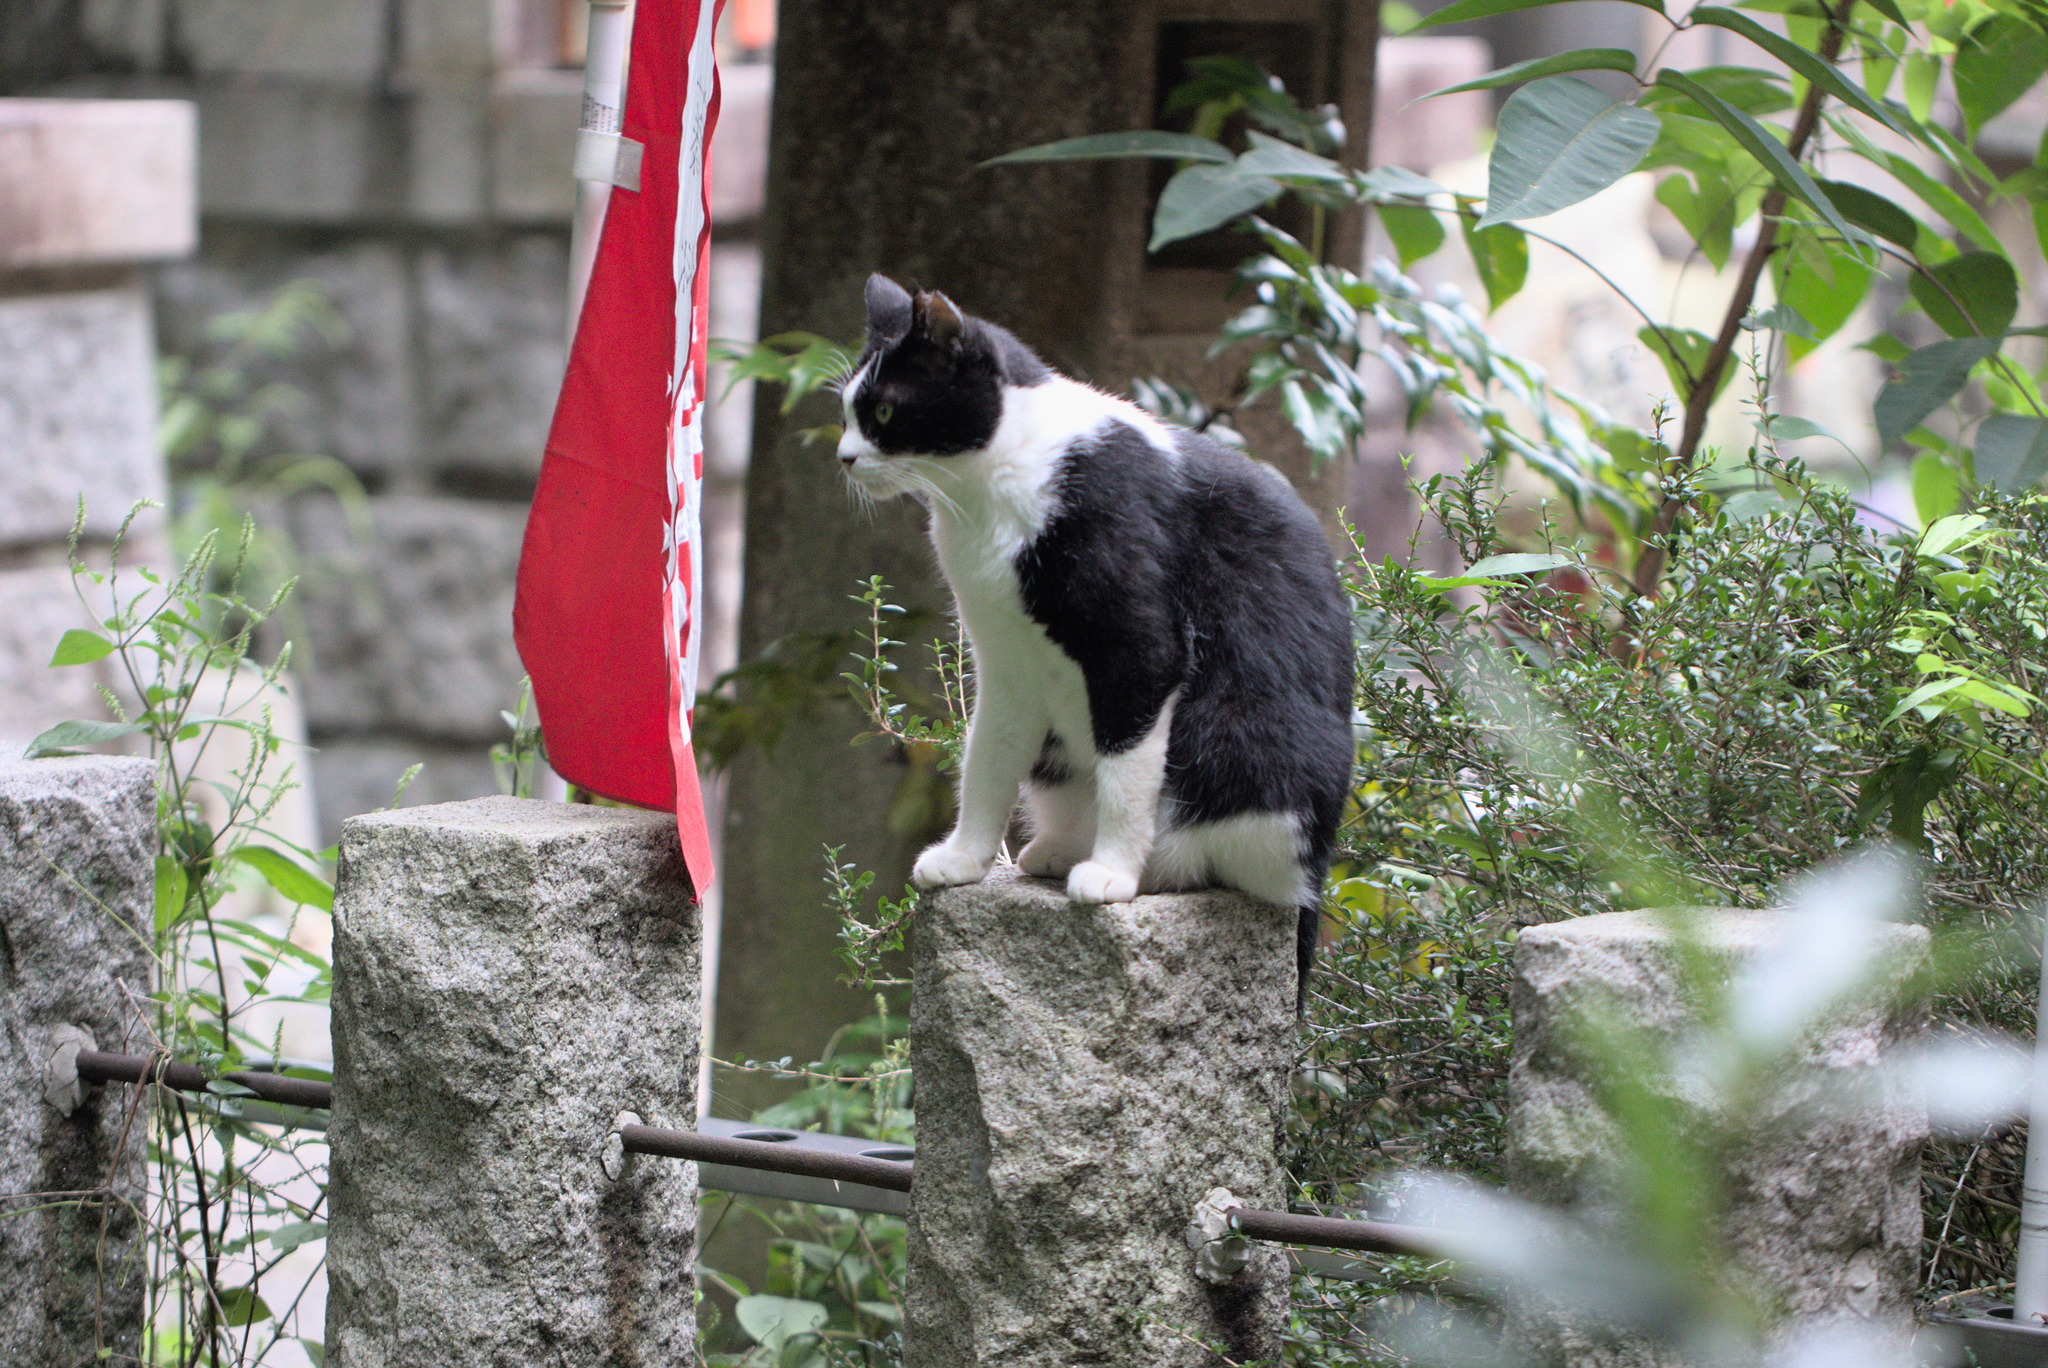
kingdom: Animalia
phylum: Chordata
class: Mammalia
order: Carnivora
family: Felidae
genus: Felis
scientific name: Felis catus
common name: Domestic cat
